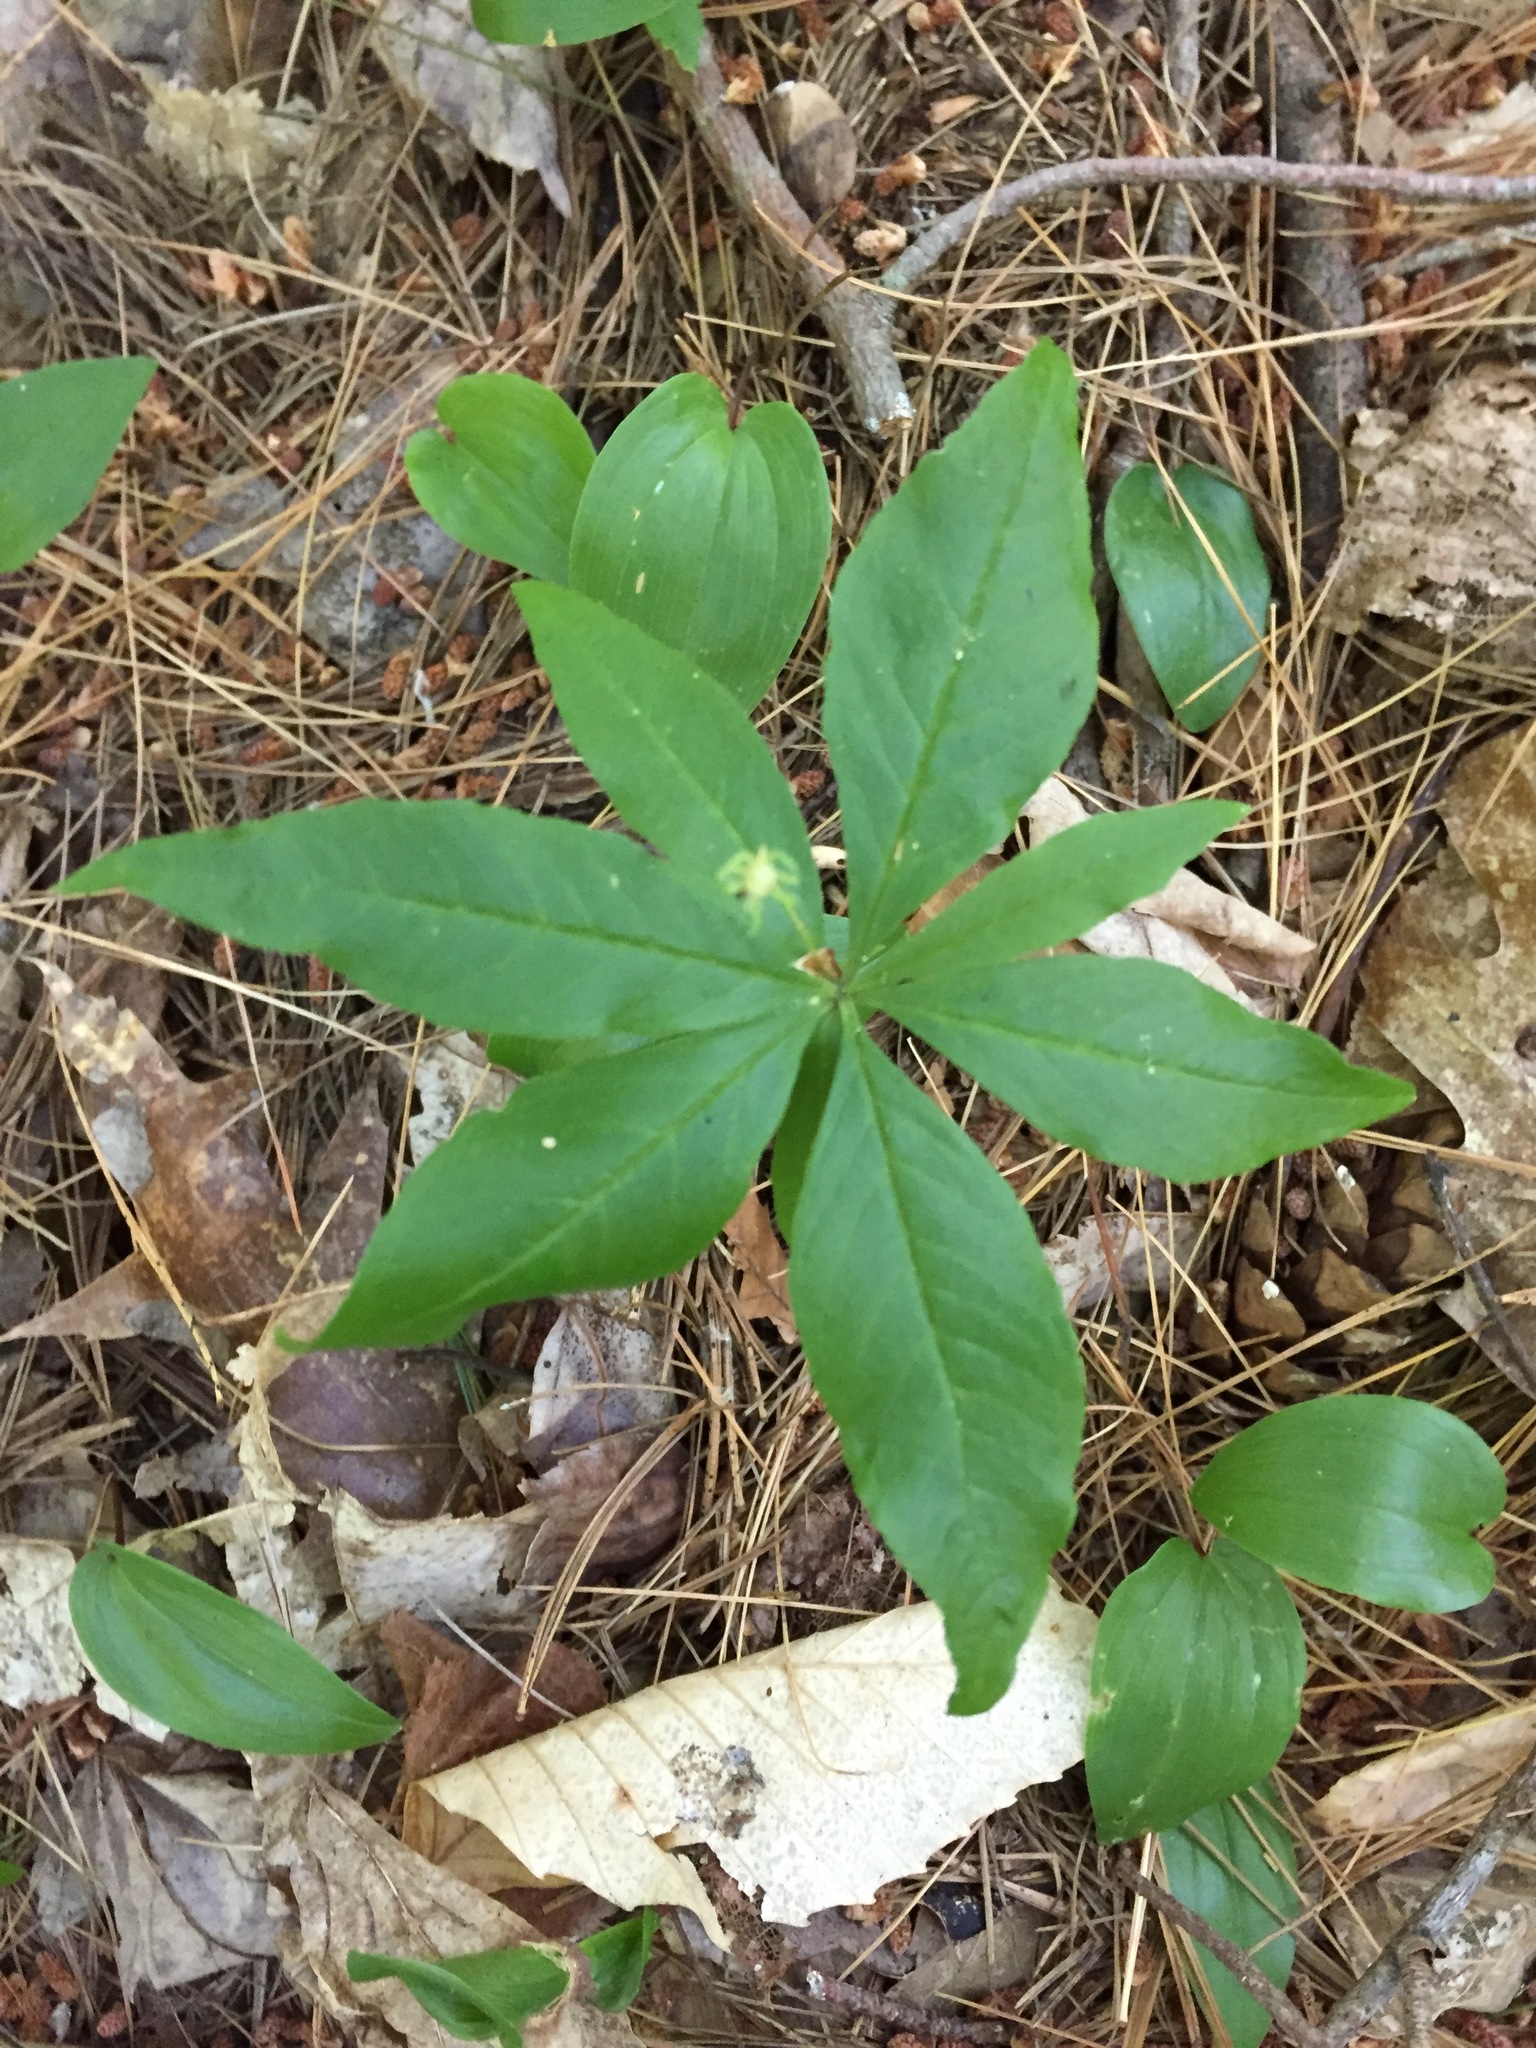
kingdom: Plantae
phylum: Tracheophyta
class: Magnoliopsida
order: Ericales
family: Primulaceae
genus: Lysimachia
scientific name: Lysimachia borealis
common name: American starflower
